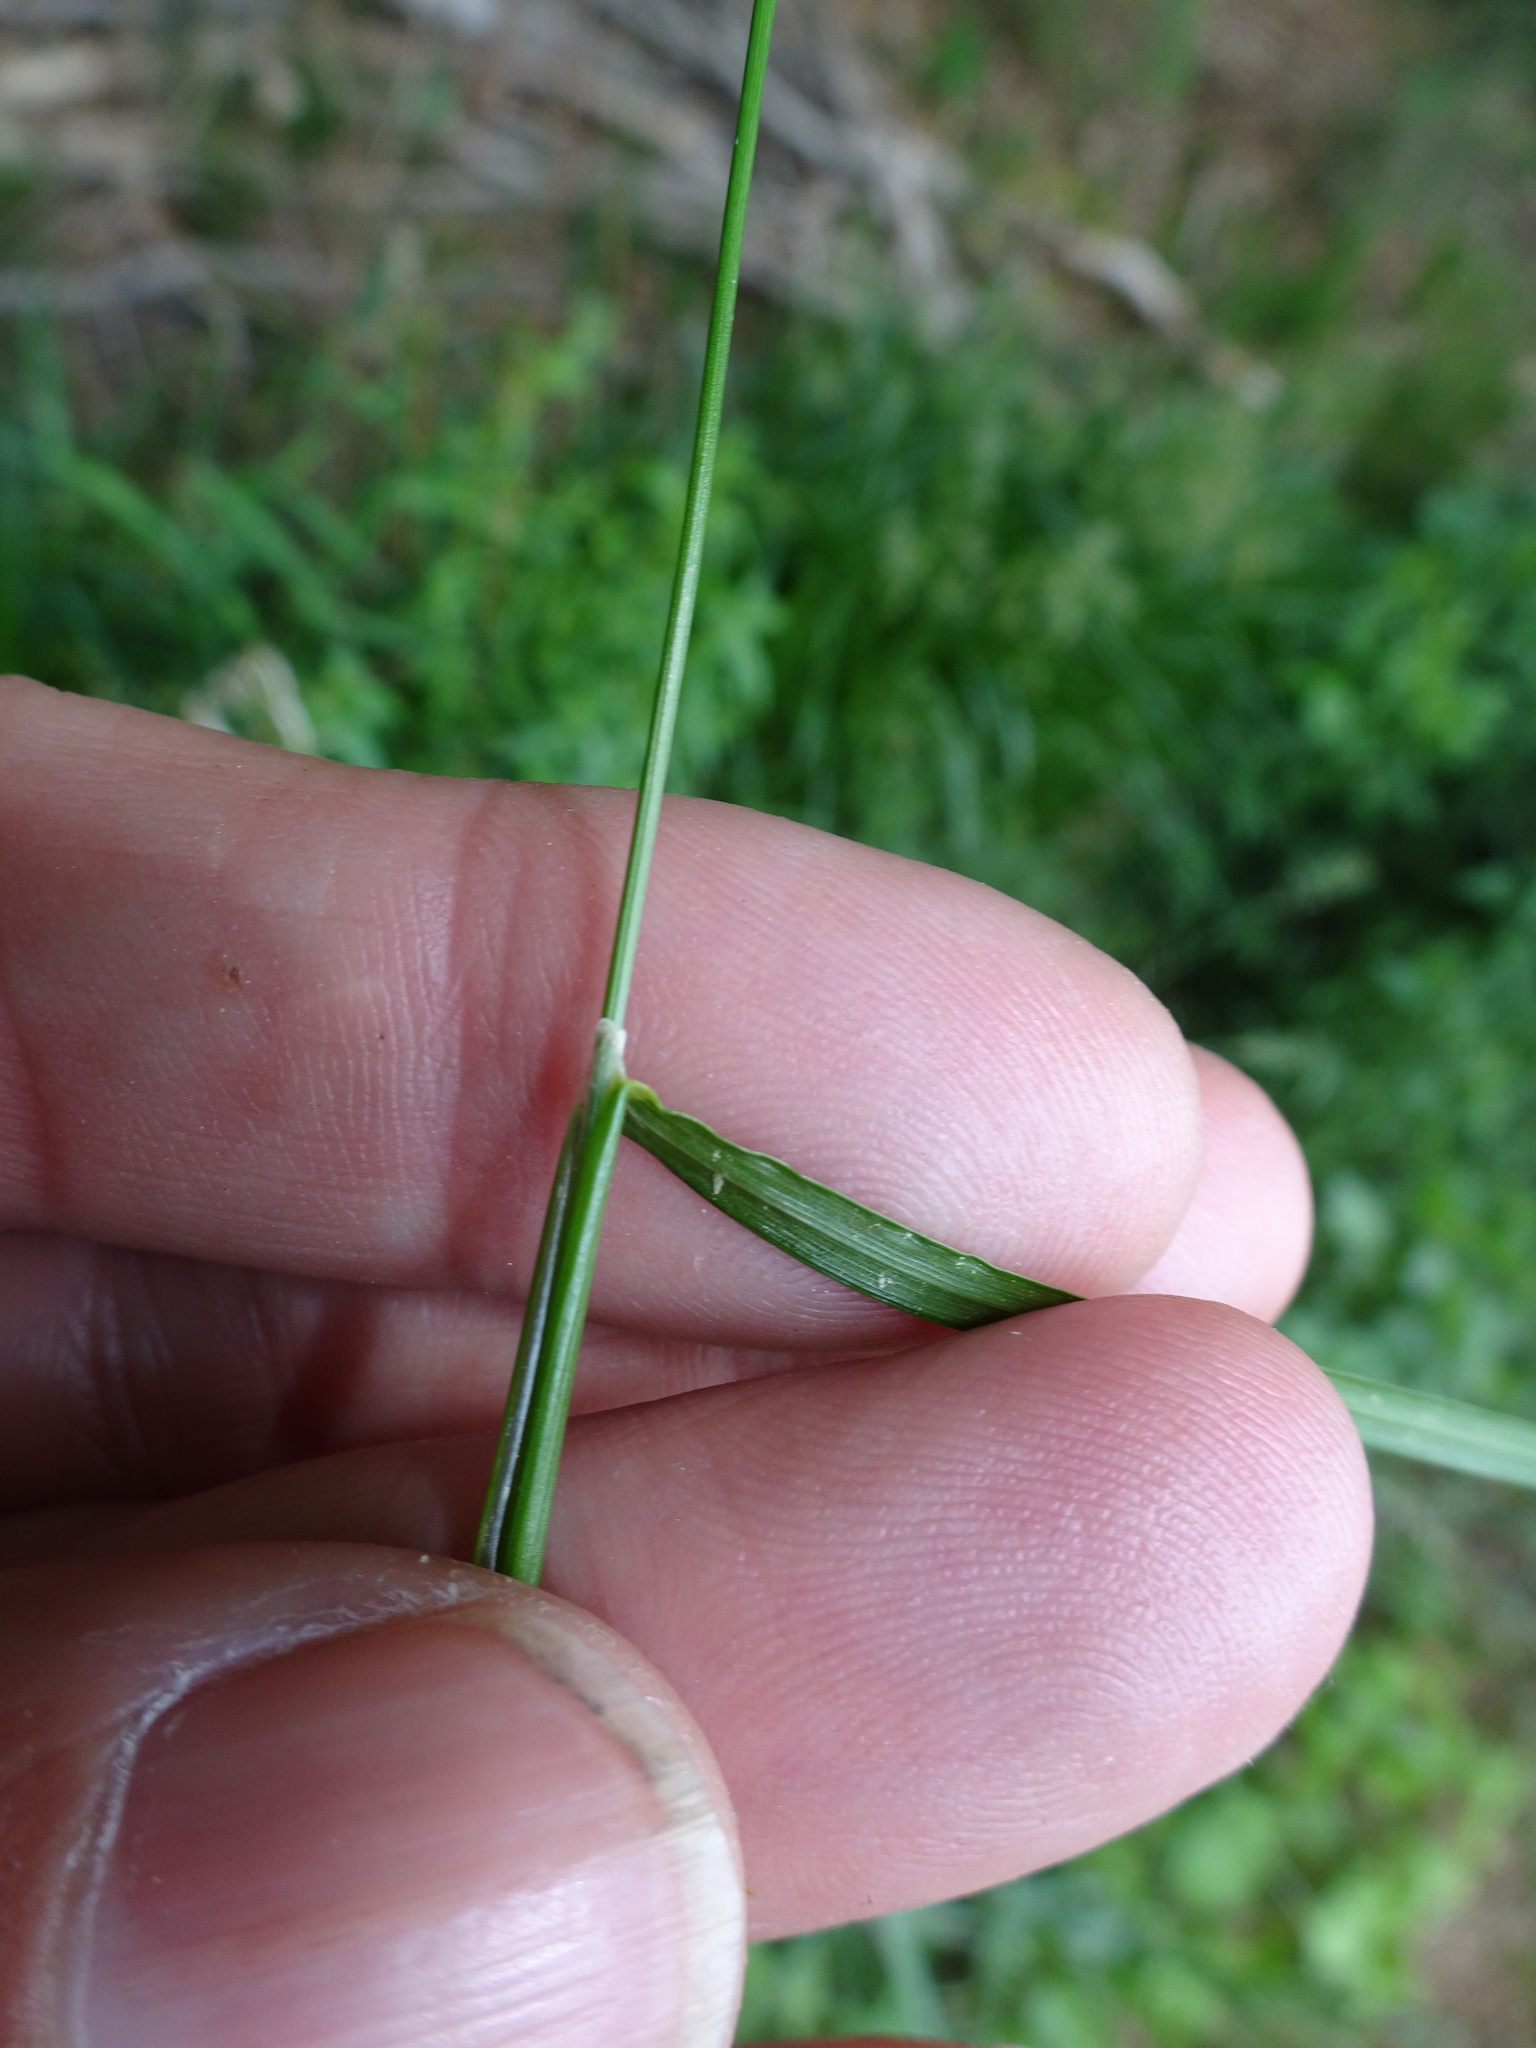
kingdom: Plantae
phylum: Tracheophyta
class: Liliopsida
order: Poales
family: Poaceae
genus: Cynosurus
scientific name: Cynosurus cristatus
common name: Crested dog's-tail
